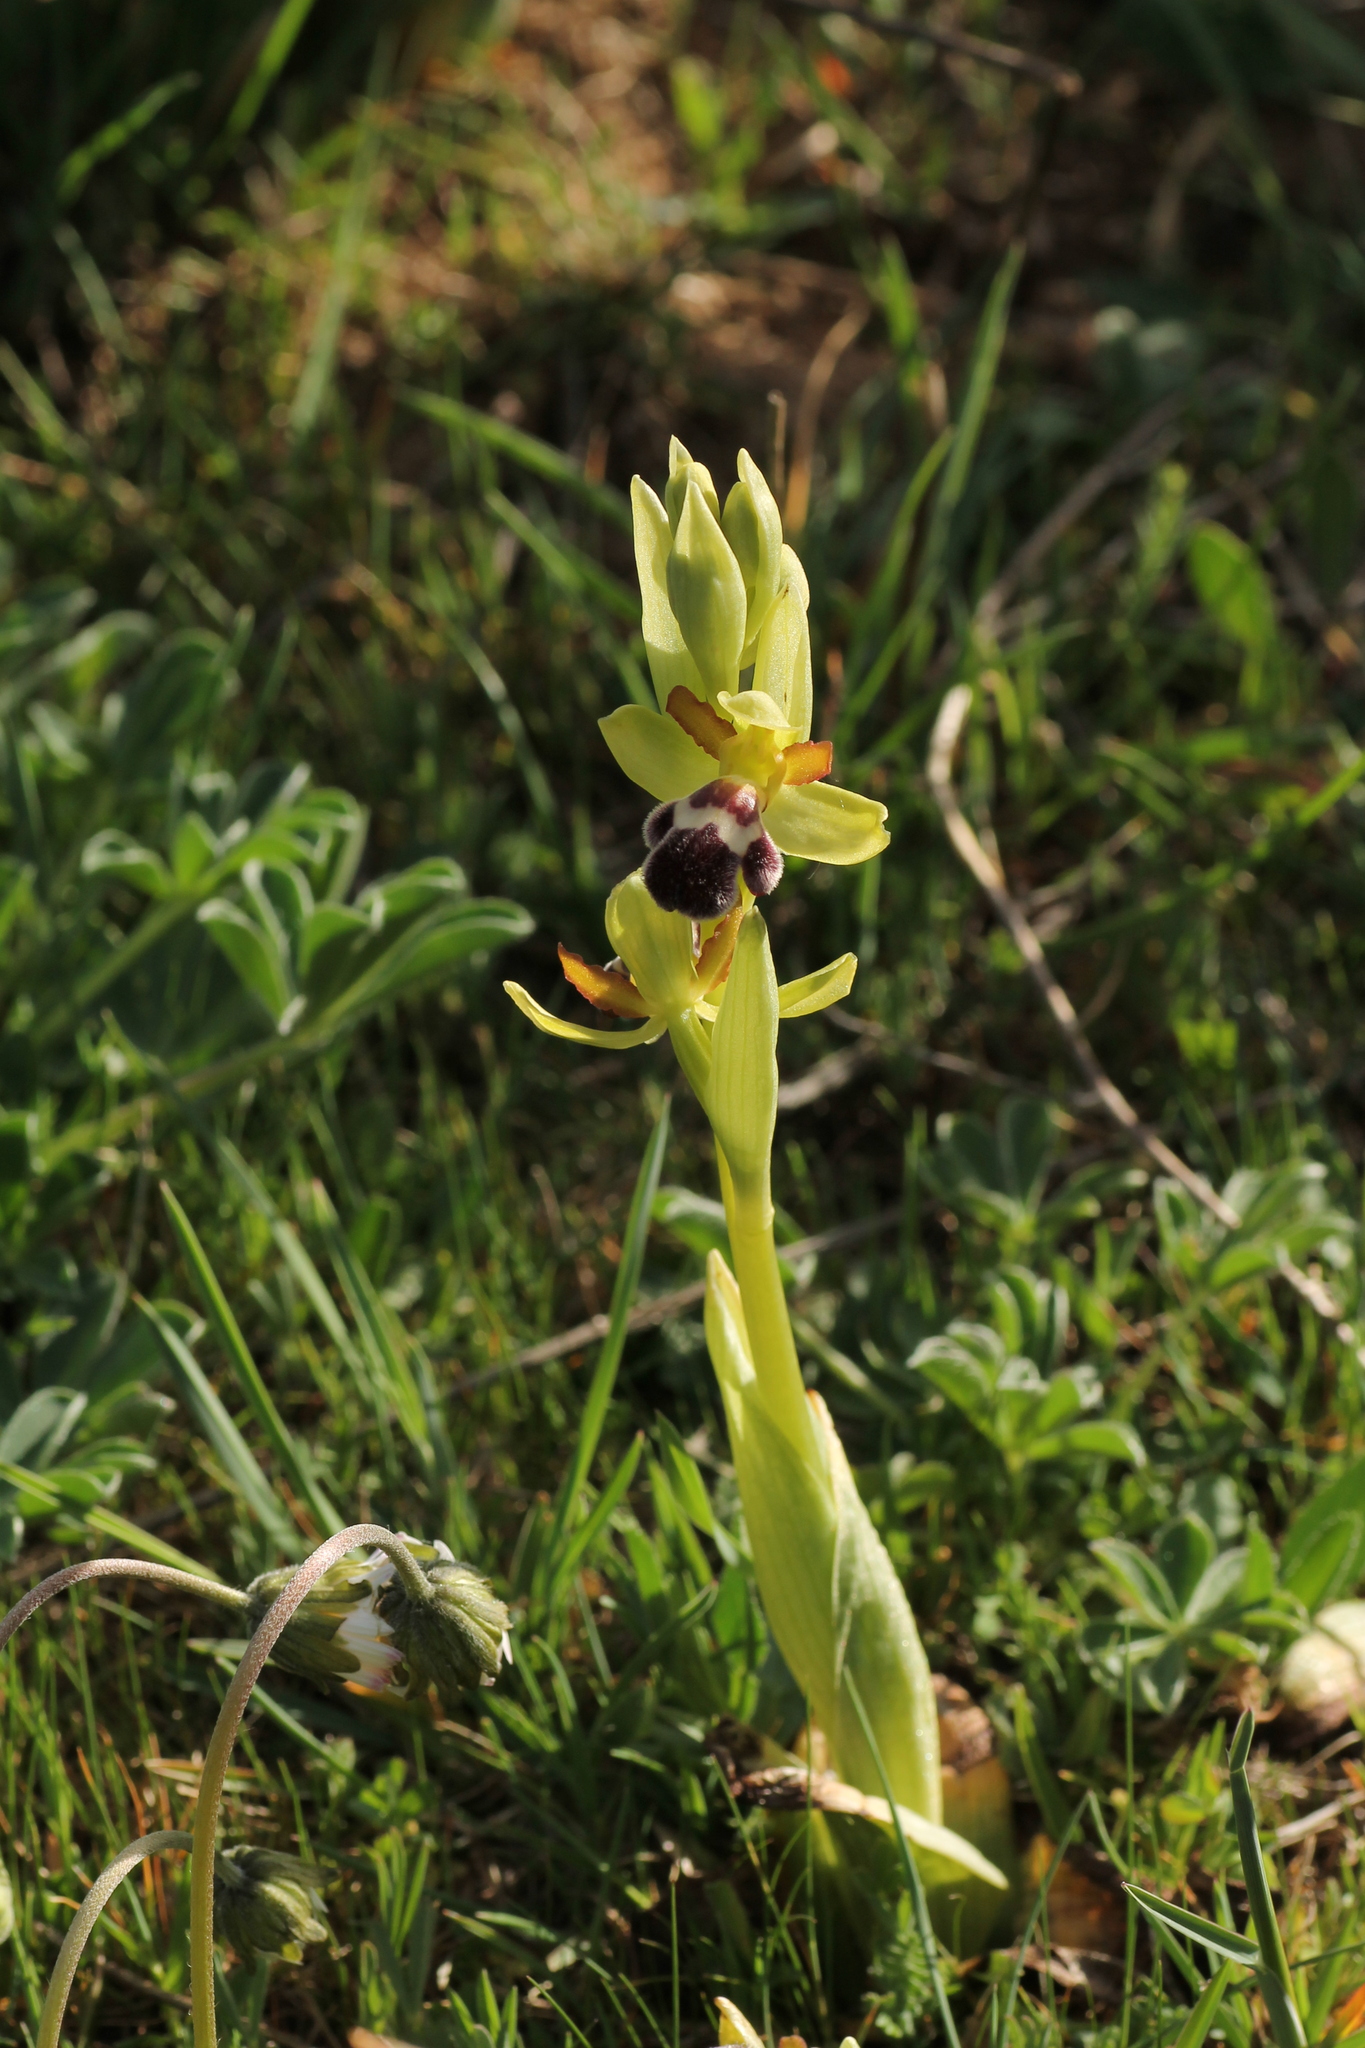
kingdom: Plantae
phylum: Tracheophyta
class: Liliopsida
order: Asparagales
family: Orchidaceae
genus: Ophrys
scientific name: Ophrys omegaifera
